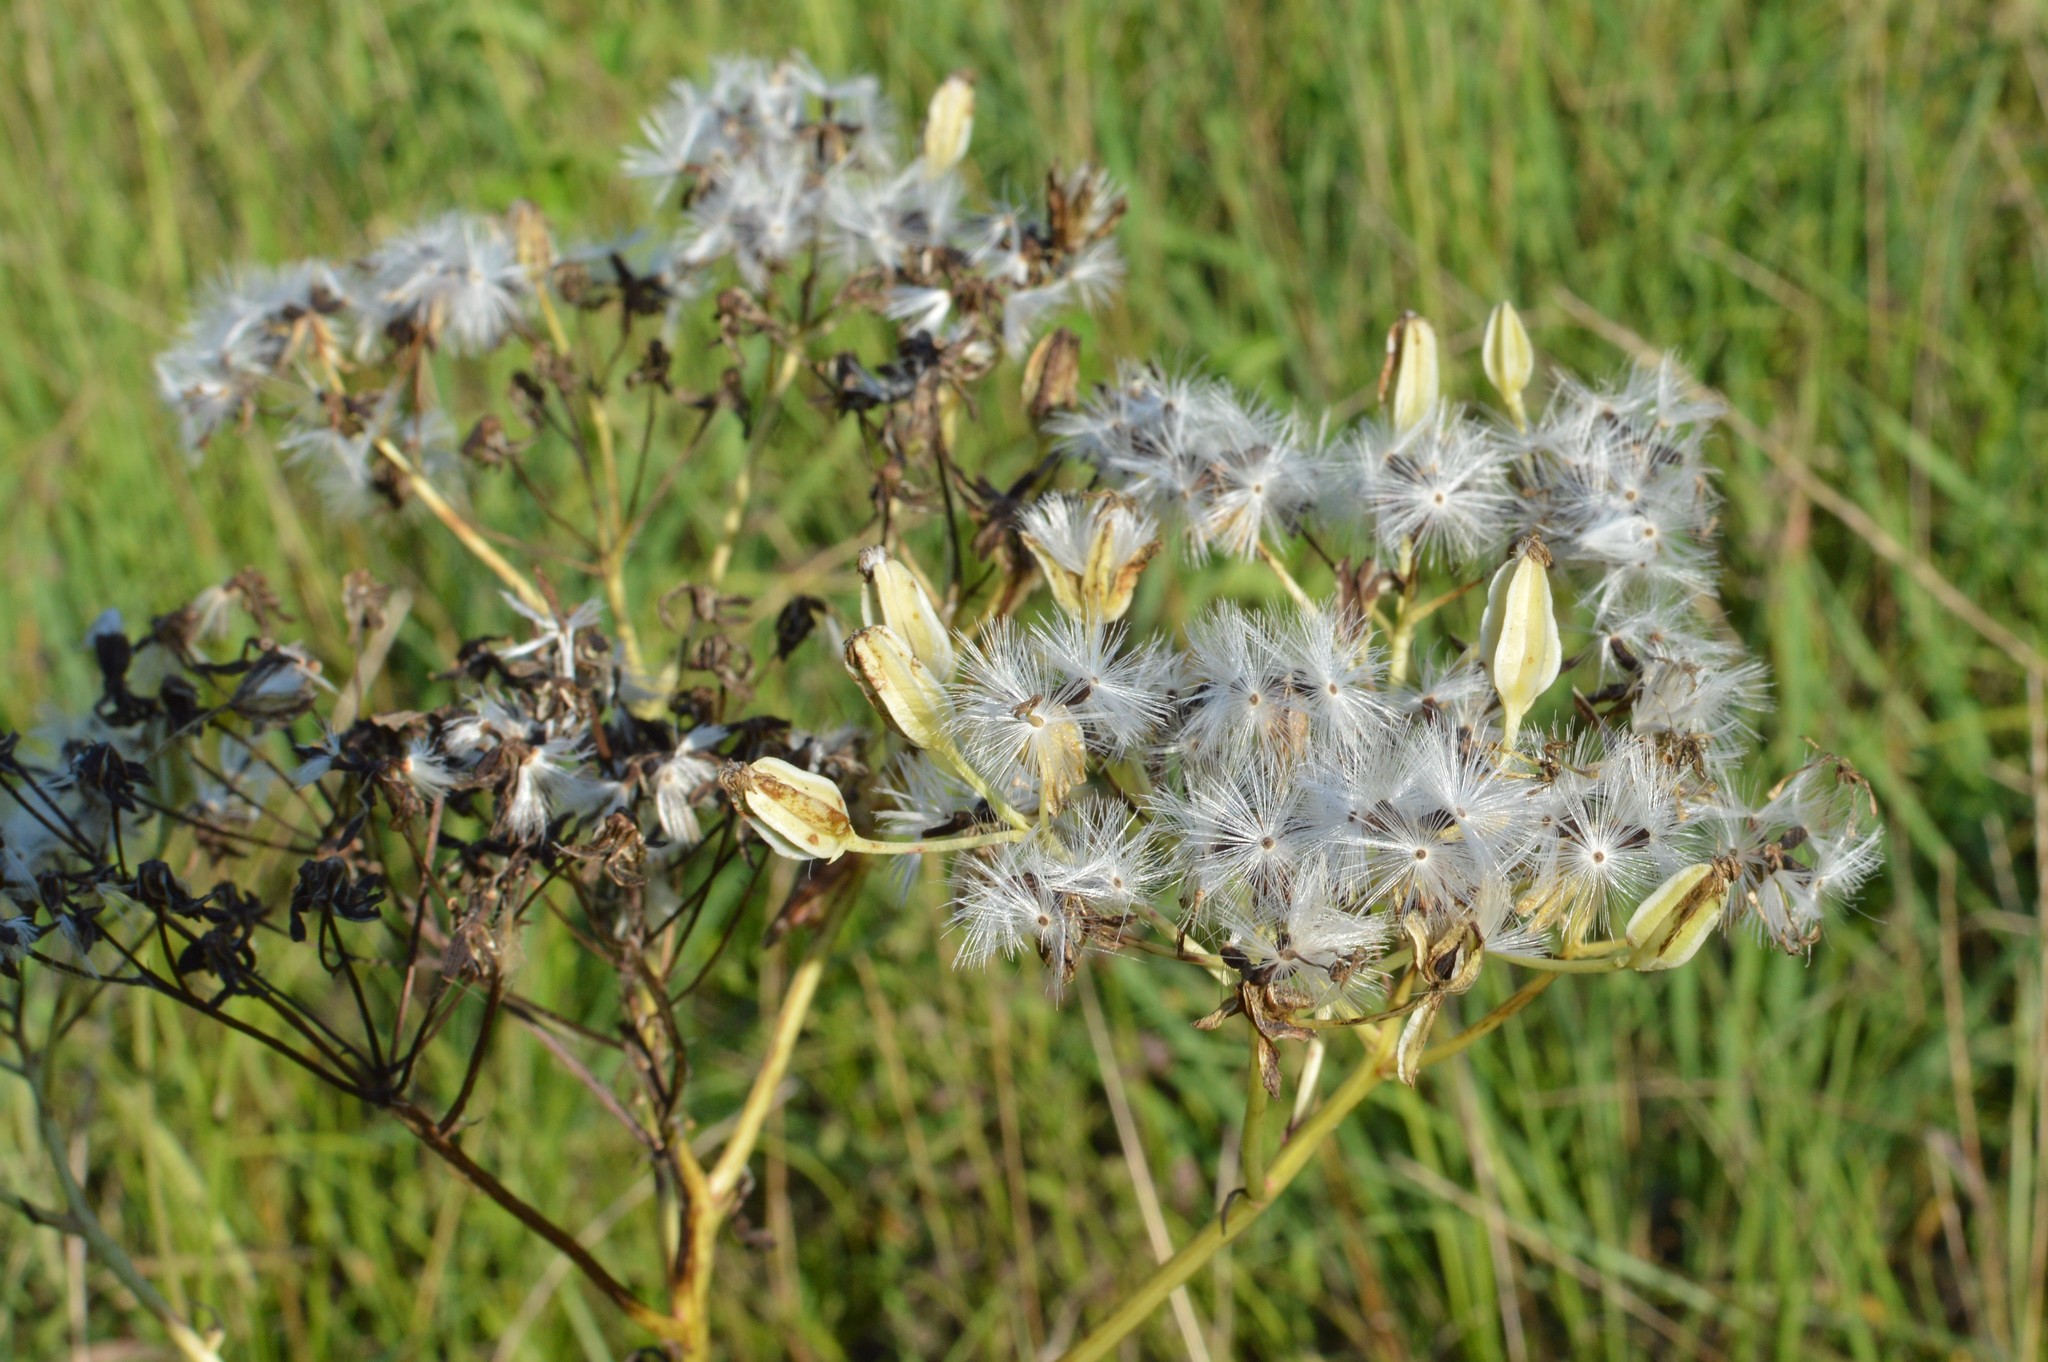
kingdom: Plantae
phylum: Tracheophyta
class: Magnoliopsida
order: Asterales
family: Asteraceae
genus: Arnoglossum
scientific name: Arnoglossum plantagineum
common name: Groove-stemmed indian-plantain
